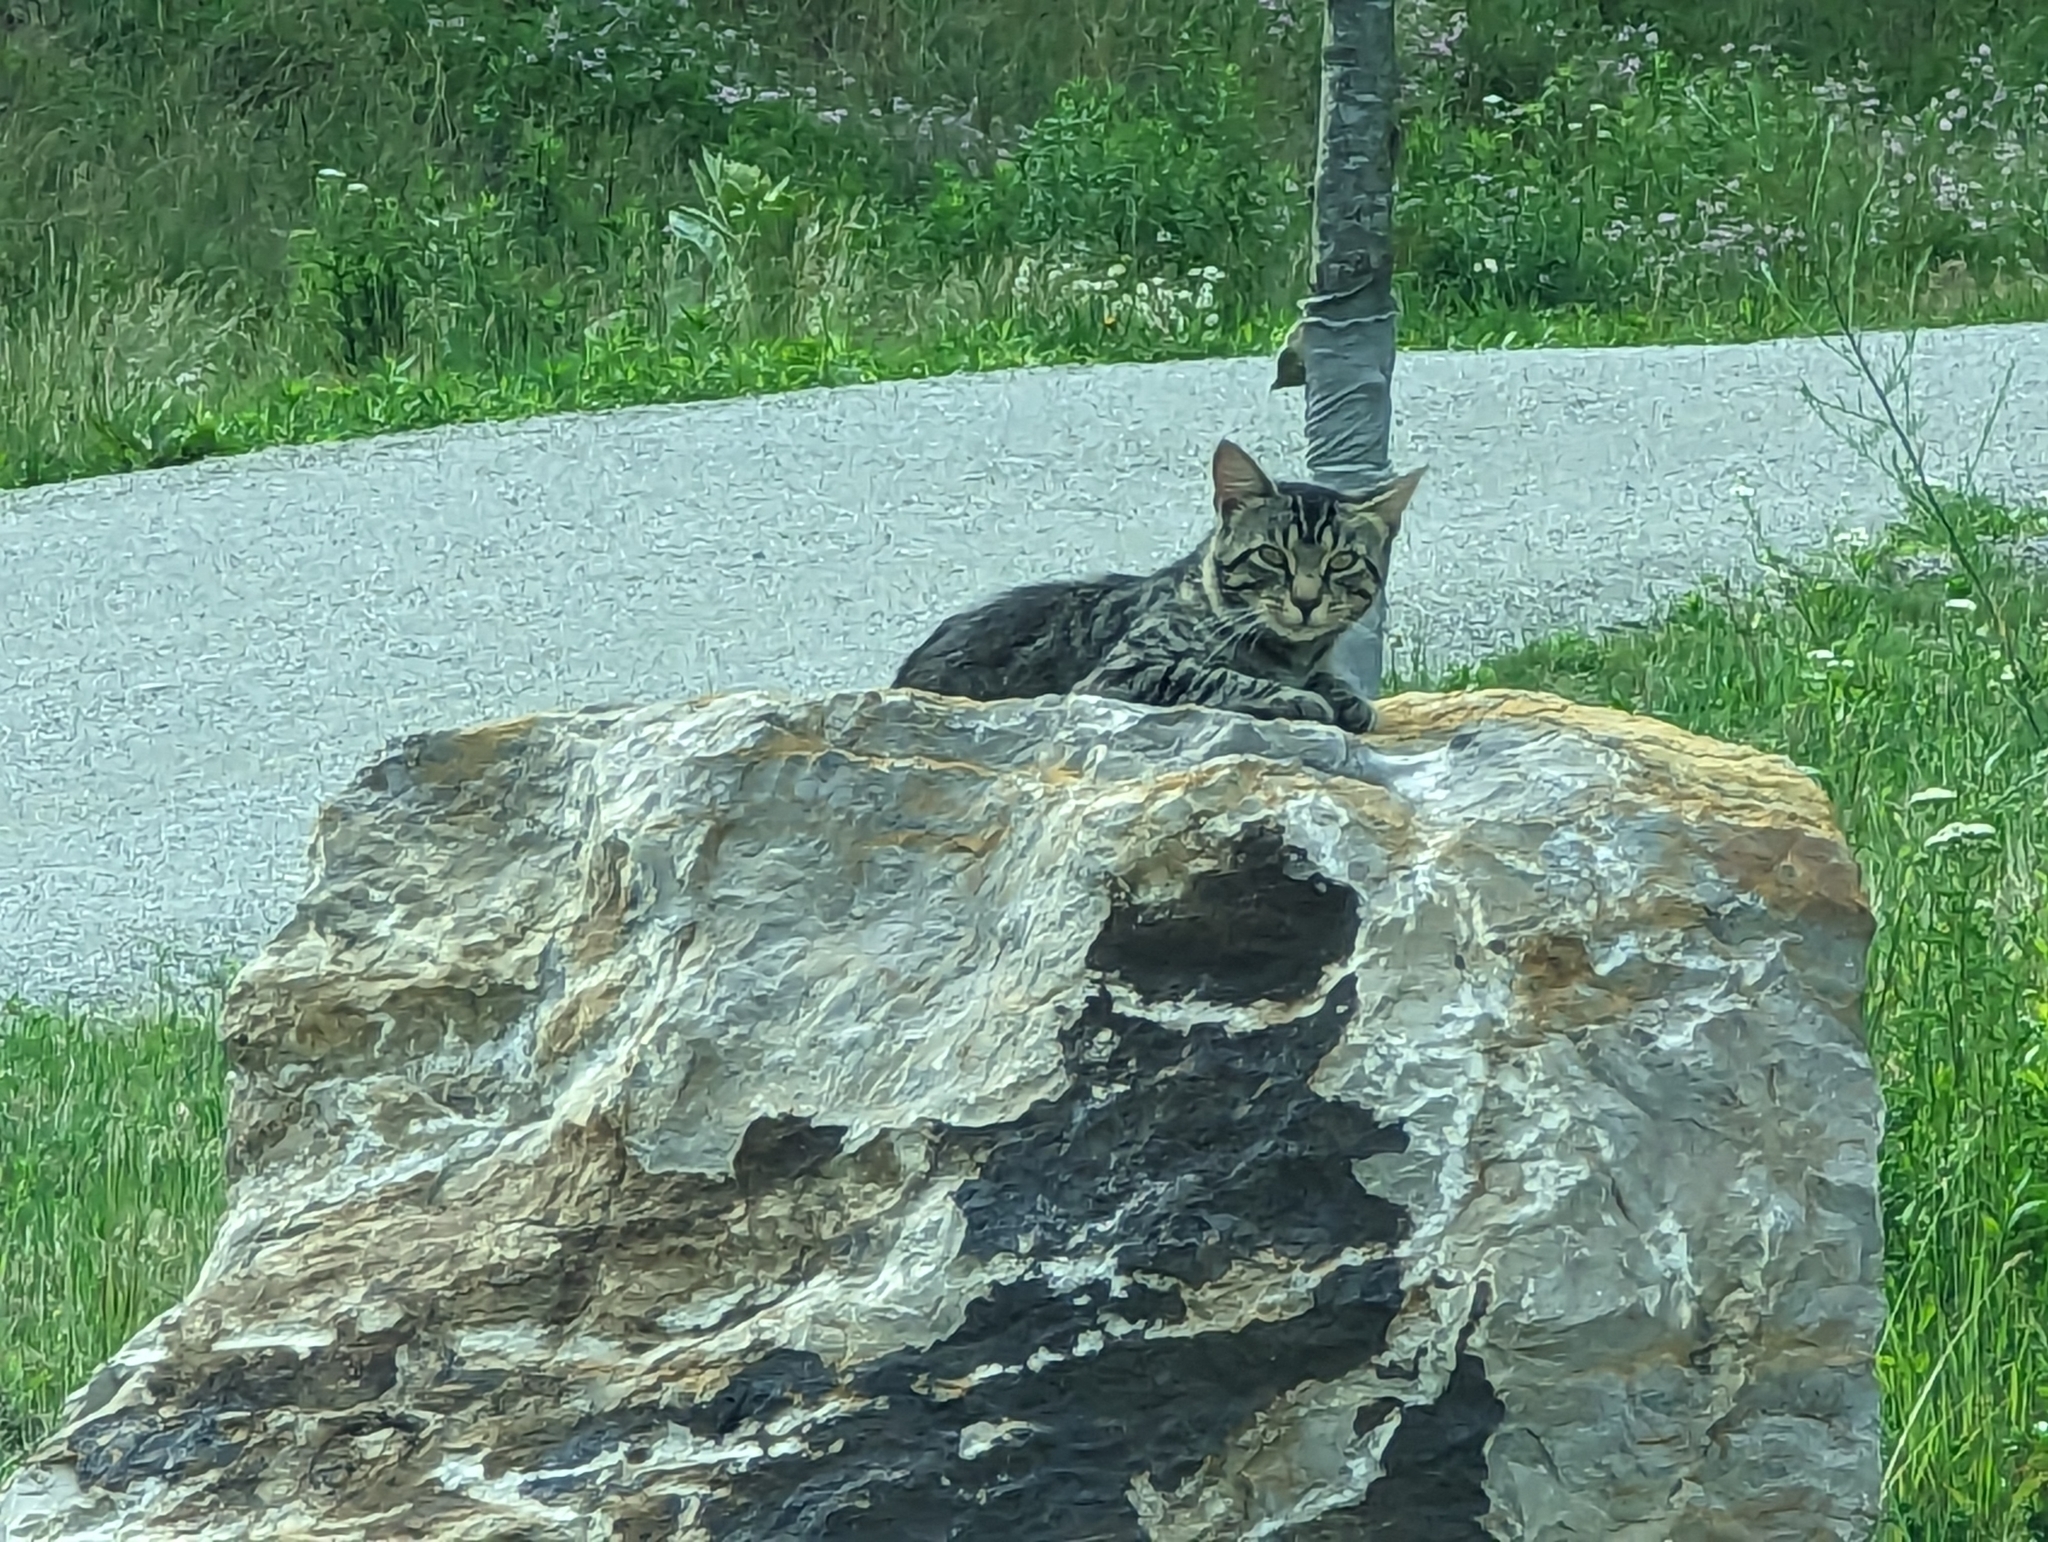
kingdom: Animalia
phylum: Chordata
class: Mammalia
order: Carnivora
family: Felidae
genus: Felis
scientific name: Felis catus
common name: Domestic cat
